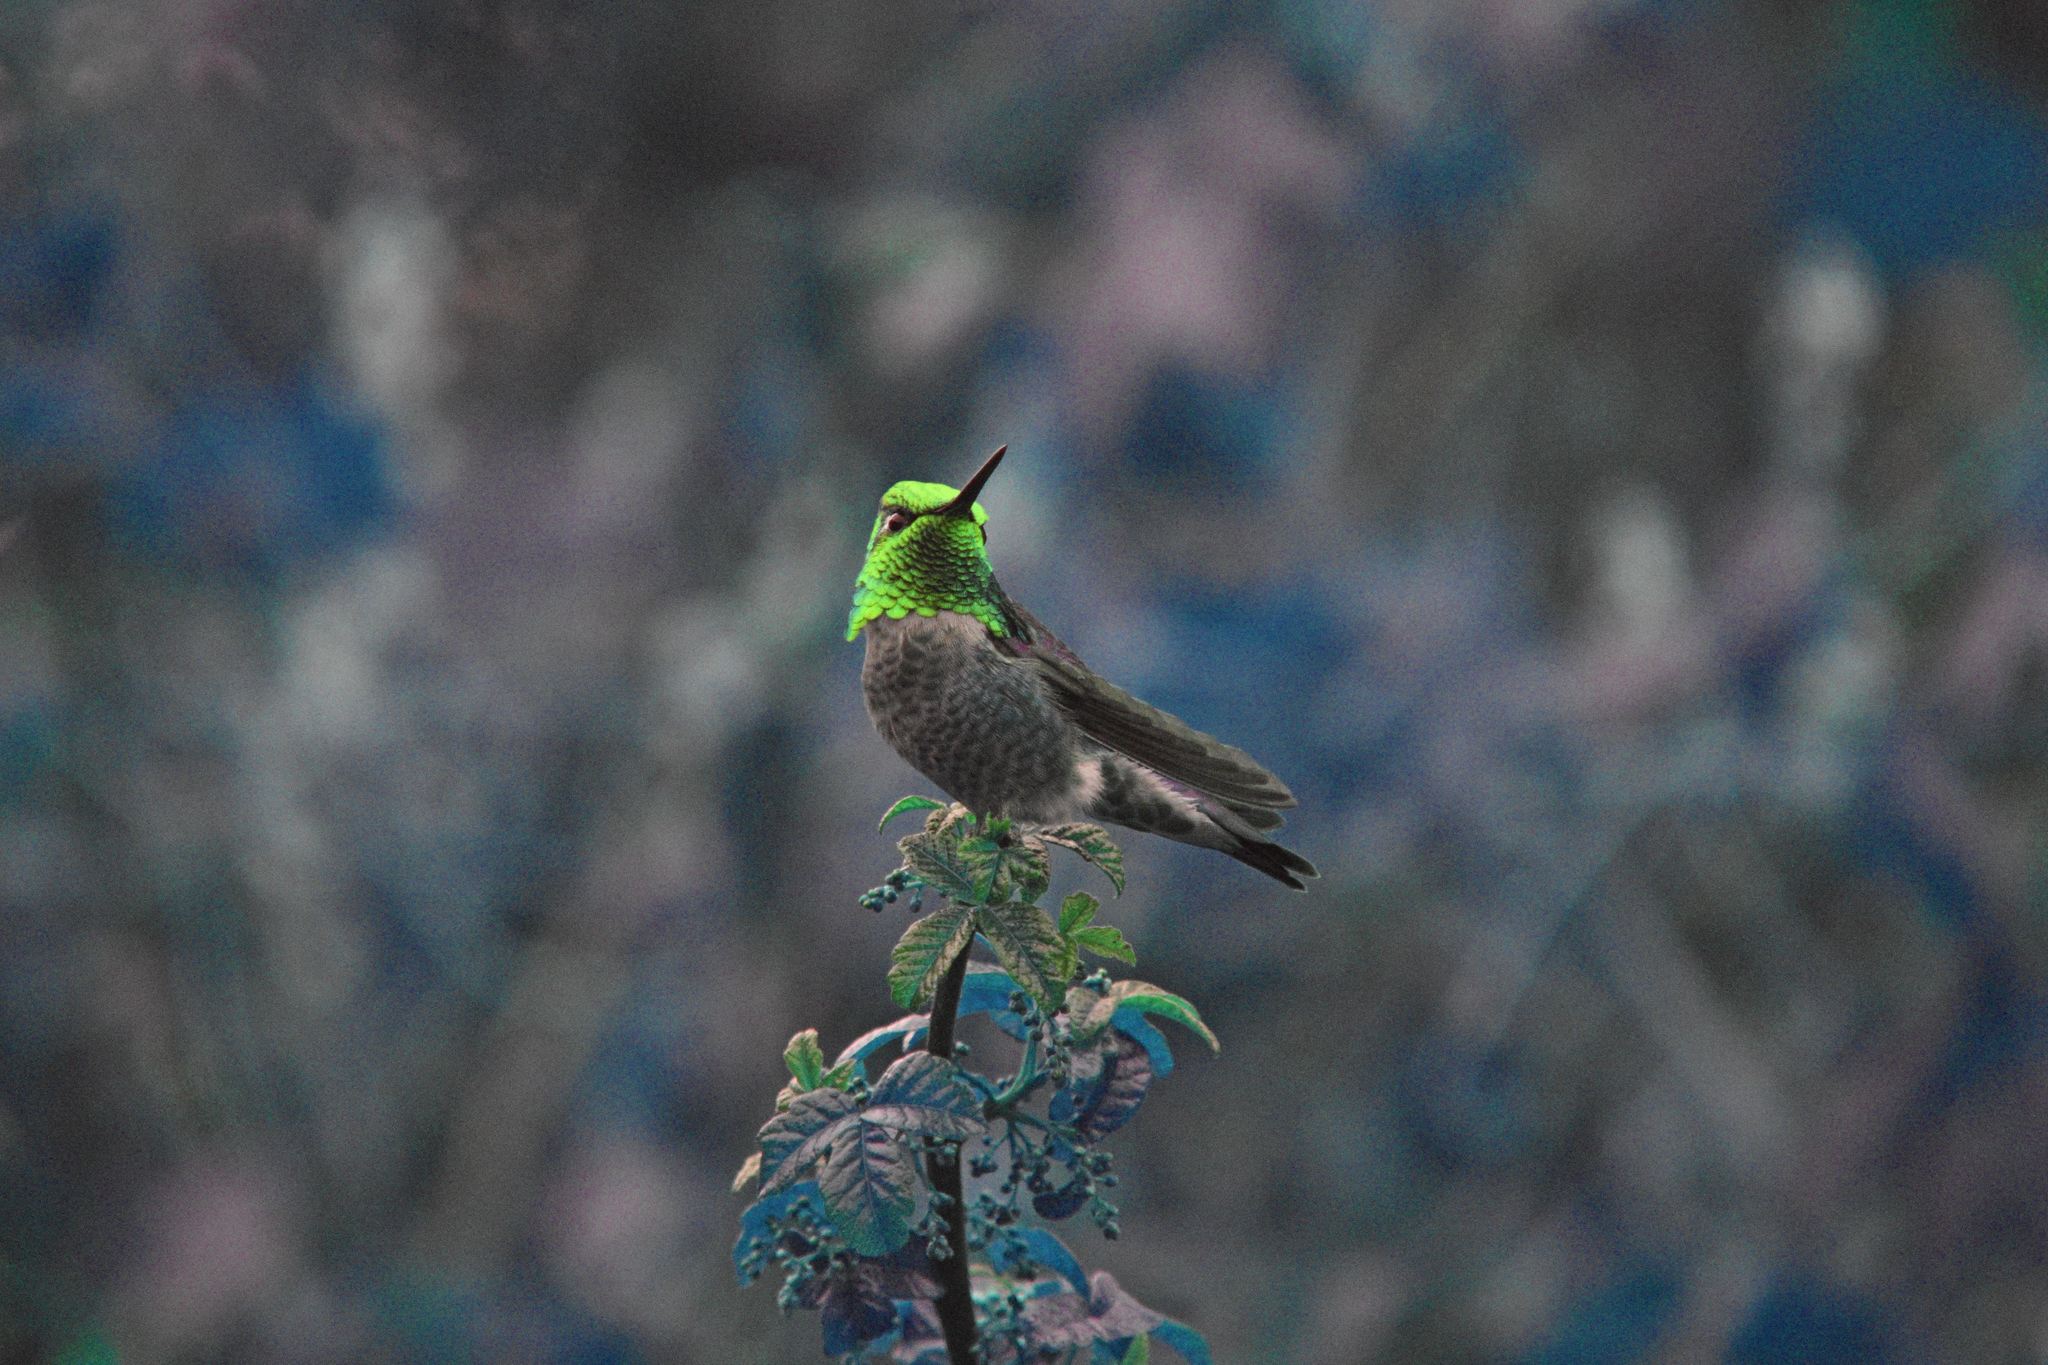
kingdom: Animalia
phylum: Chordata
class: Aves
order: Apodiformes
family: Trochilidae
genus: Calypte
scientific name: Calypte anna
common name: Anna's hummingbird
